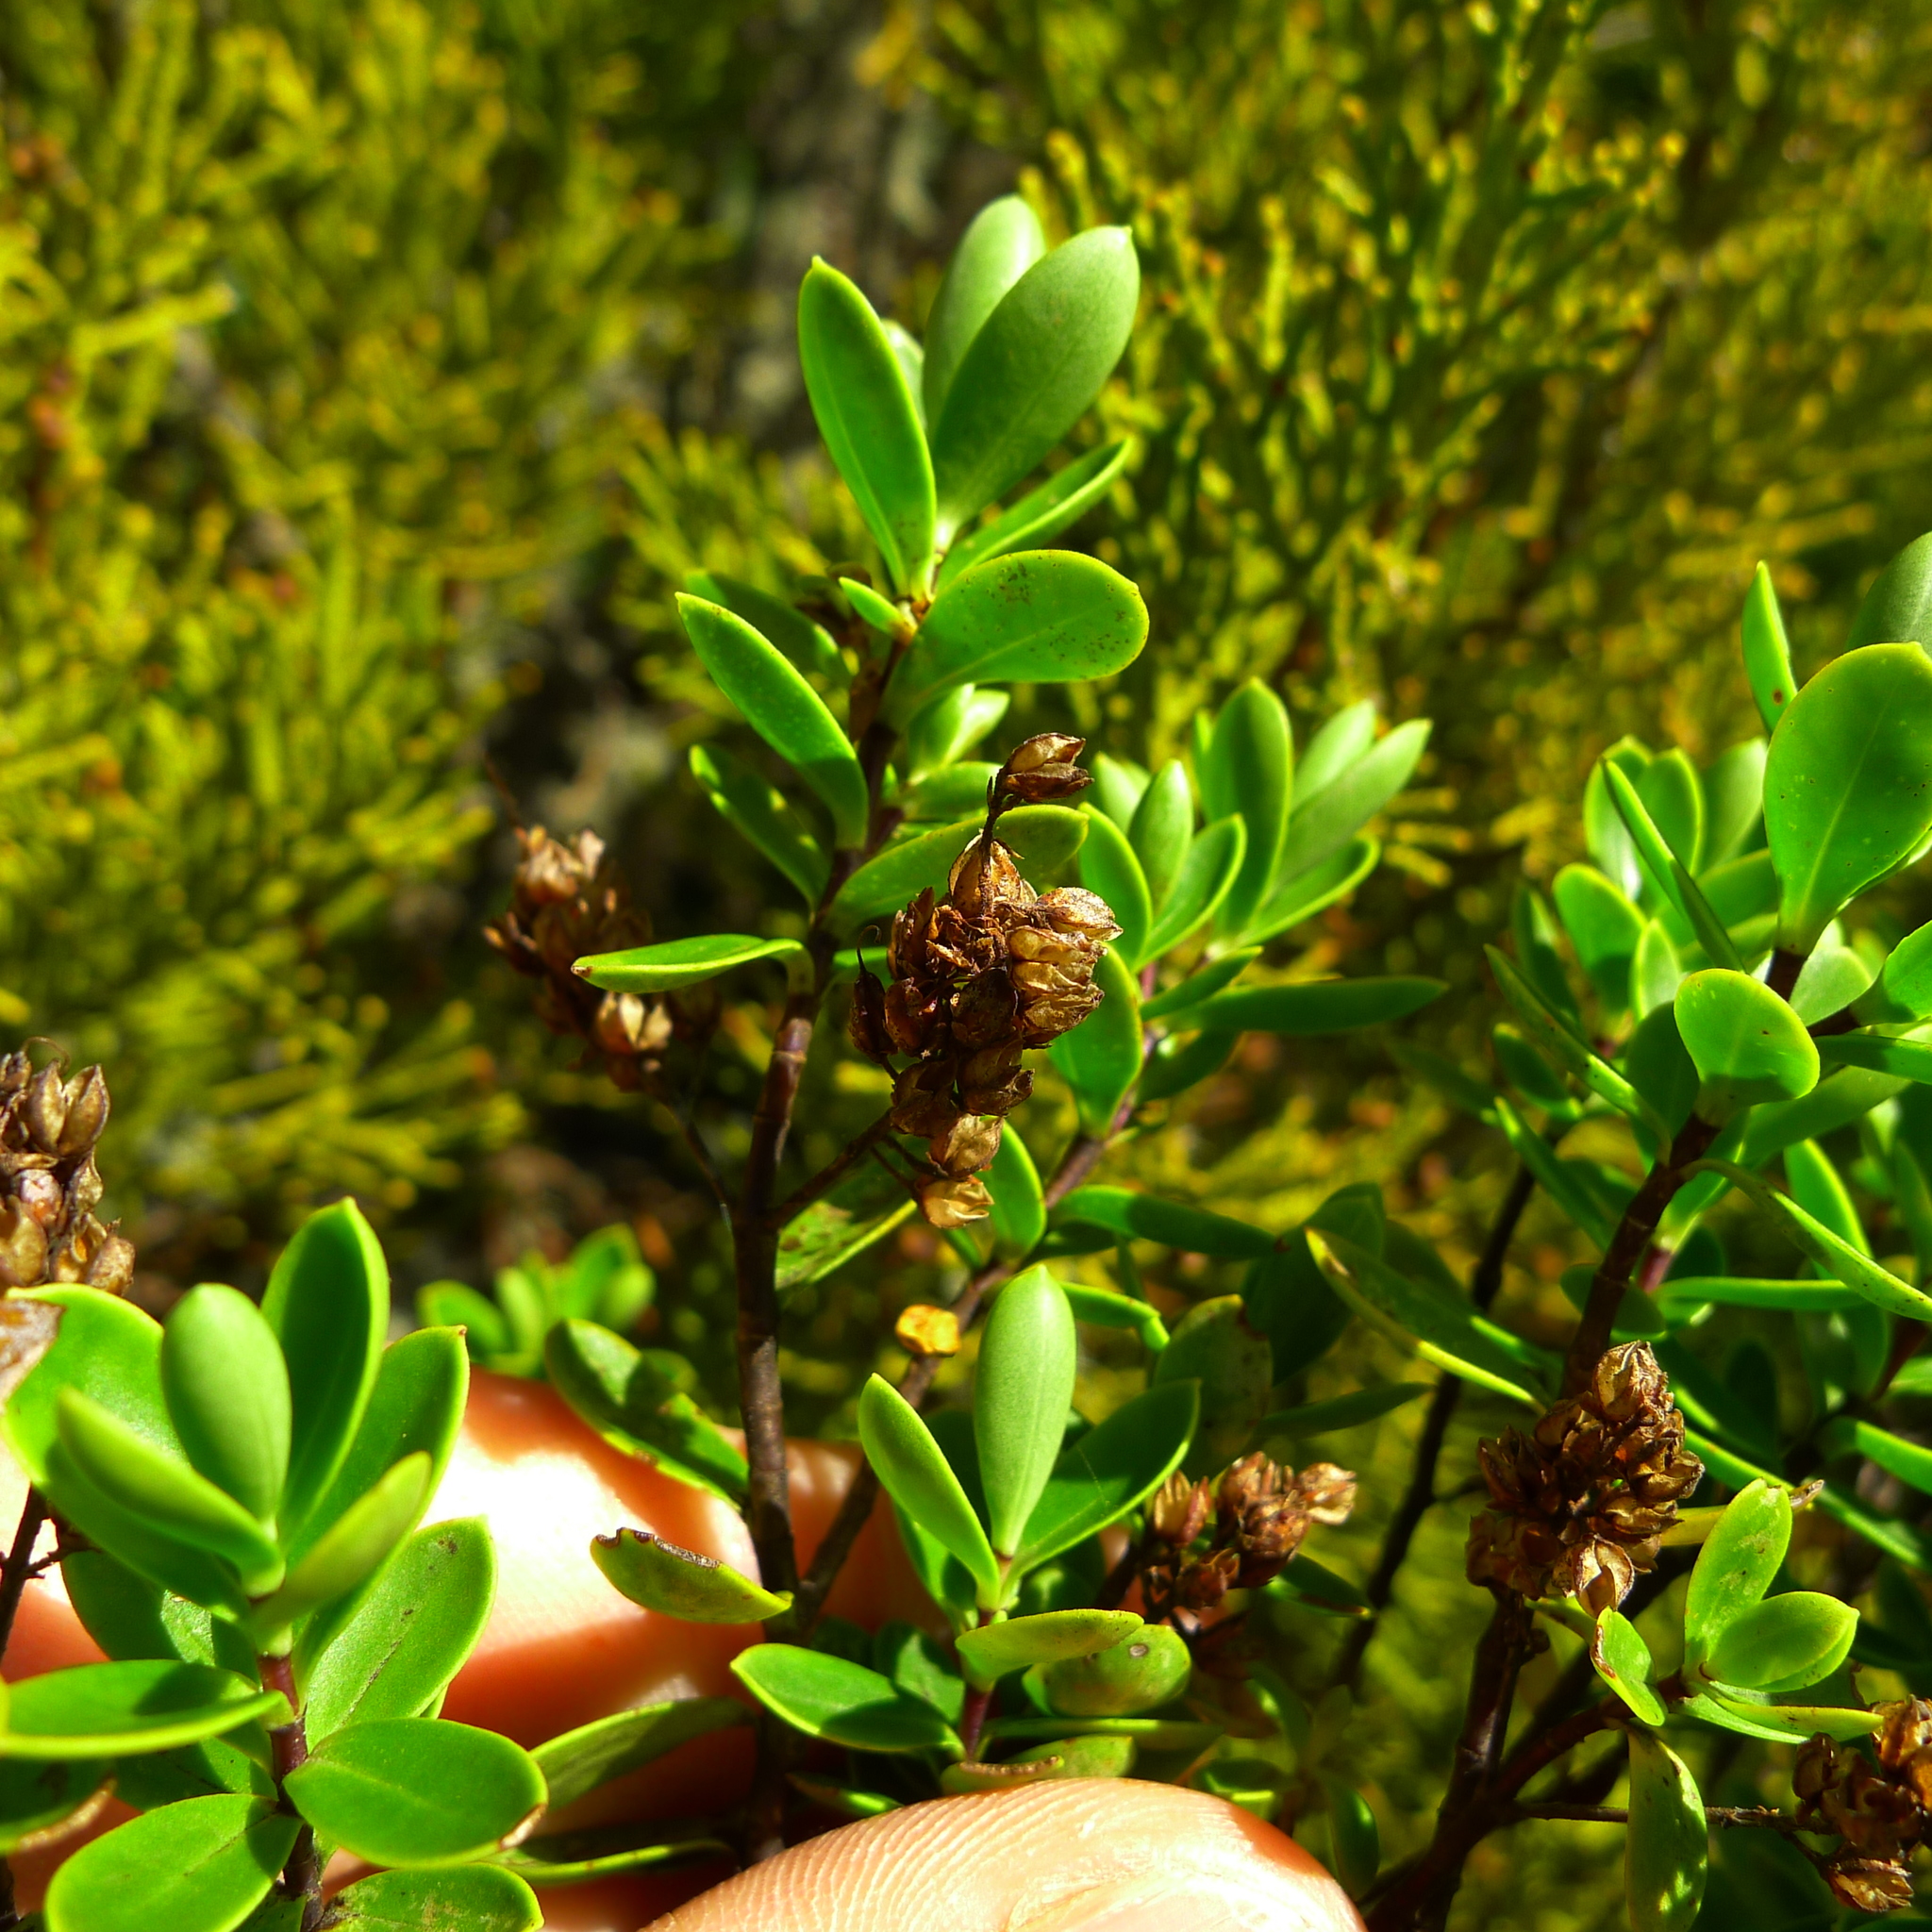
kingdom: Plantae
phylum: Tracheophyta
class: Magnoliopsida
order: Lamiales
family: Plantaginaceae
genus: Veronica
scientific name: Veronica rakaiensis
